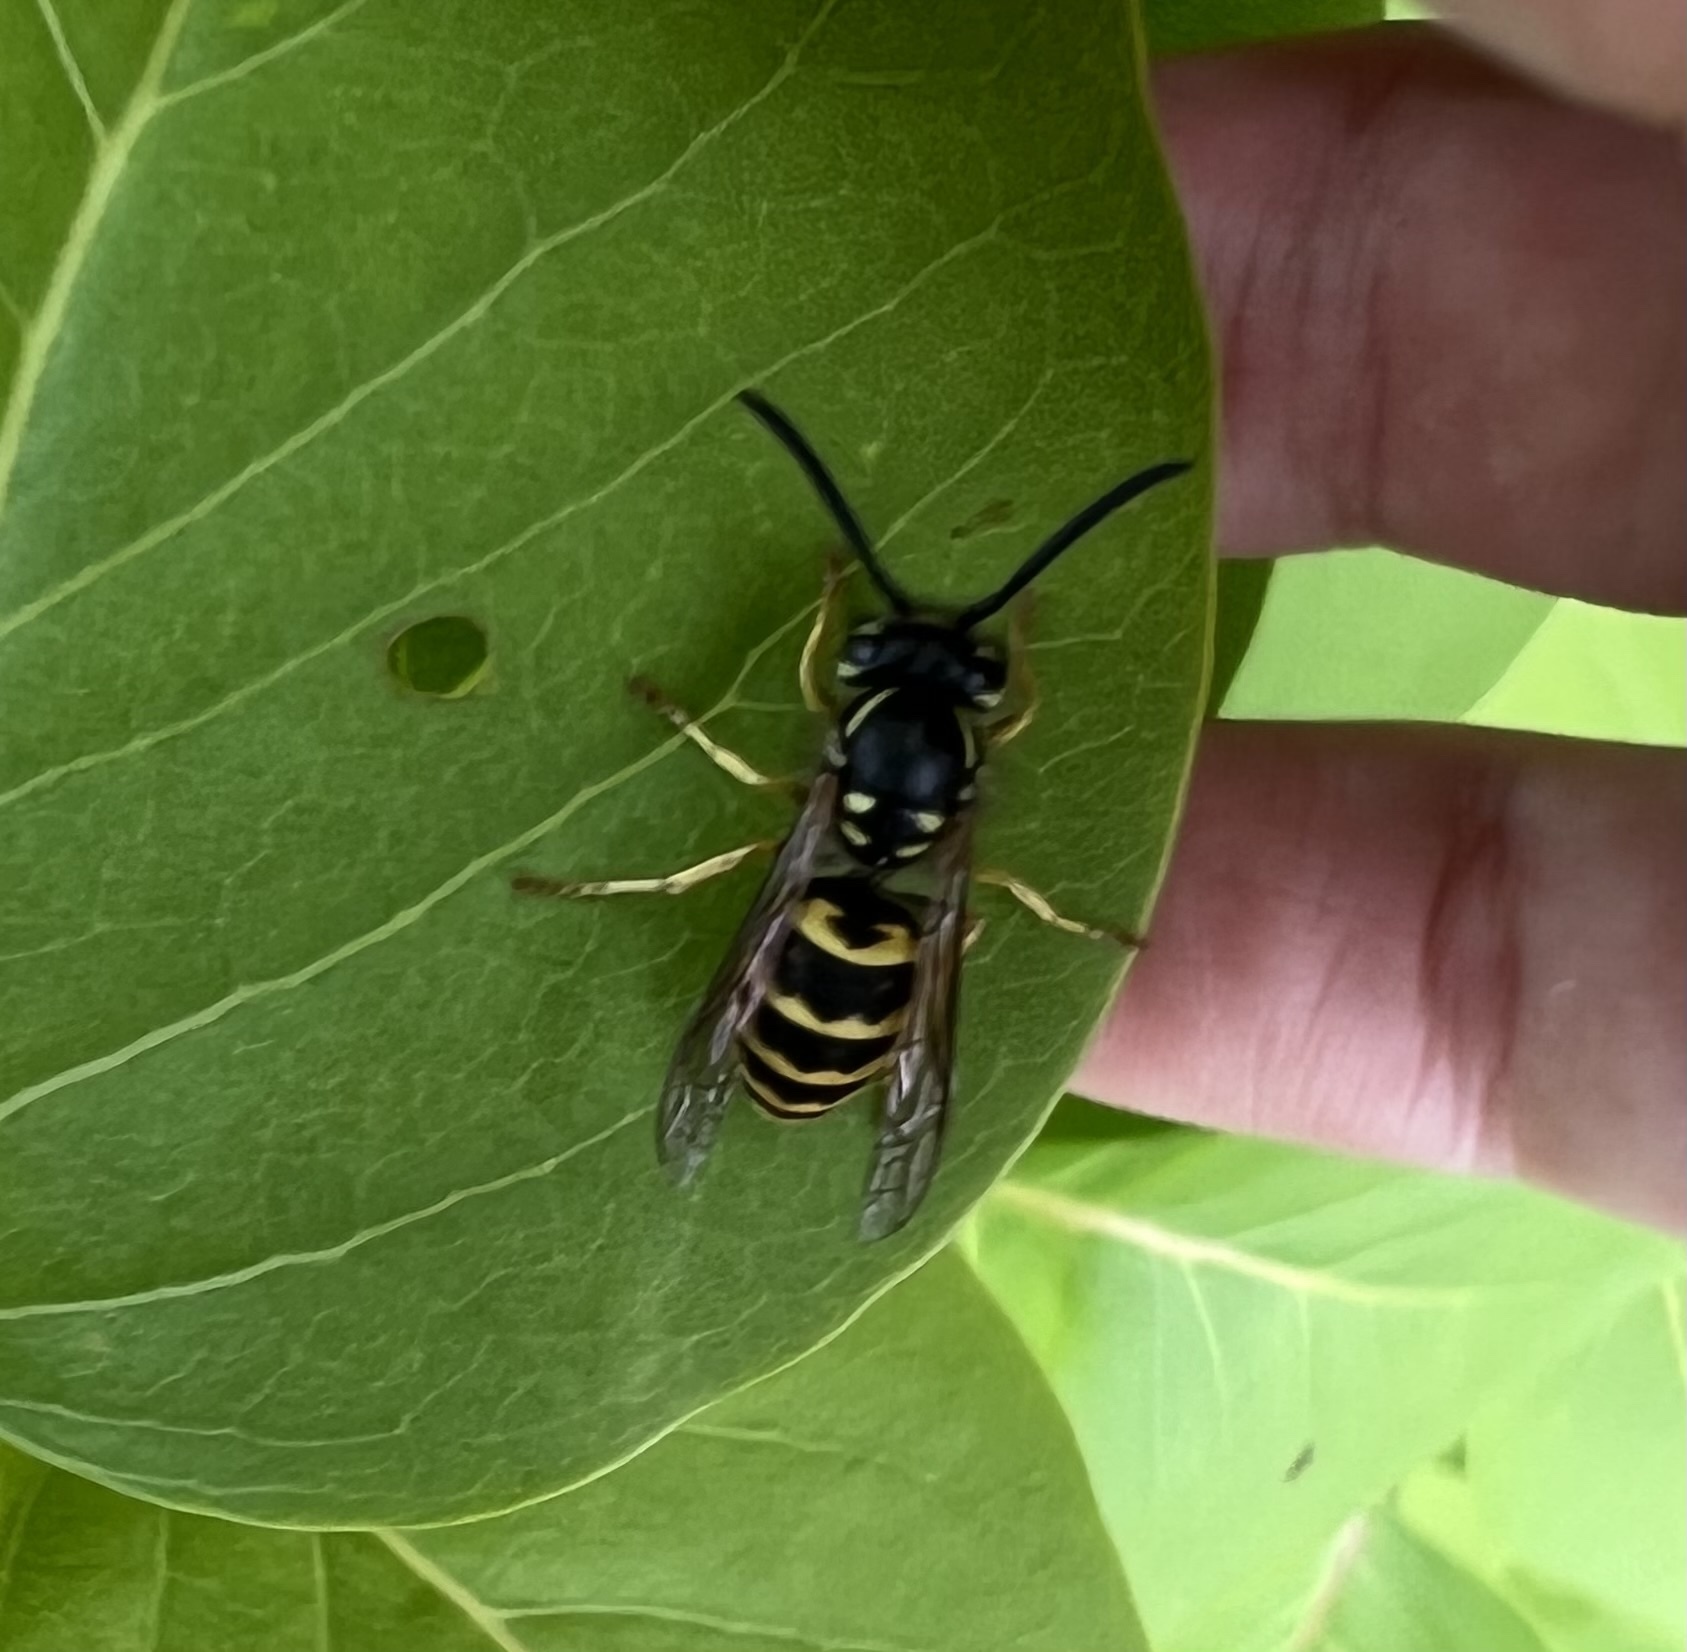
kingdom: Animalia
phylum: Arthropoda
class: Insecta
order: Hymenoptera
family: Vespidae
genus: Vespula
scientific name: Vespula alascensis
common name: Alaska yellowjacket
